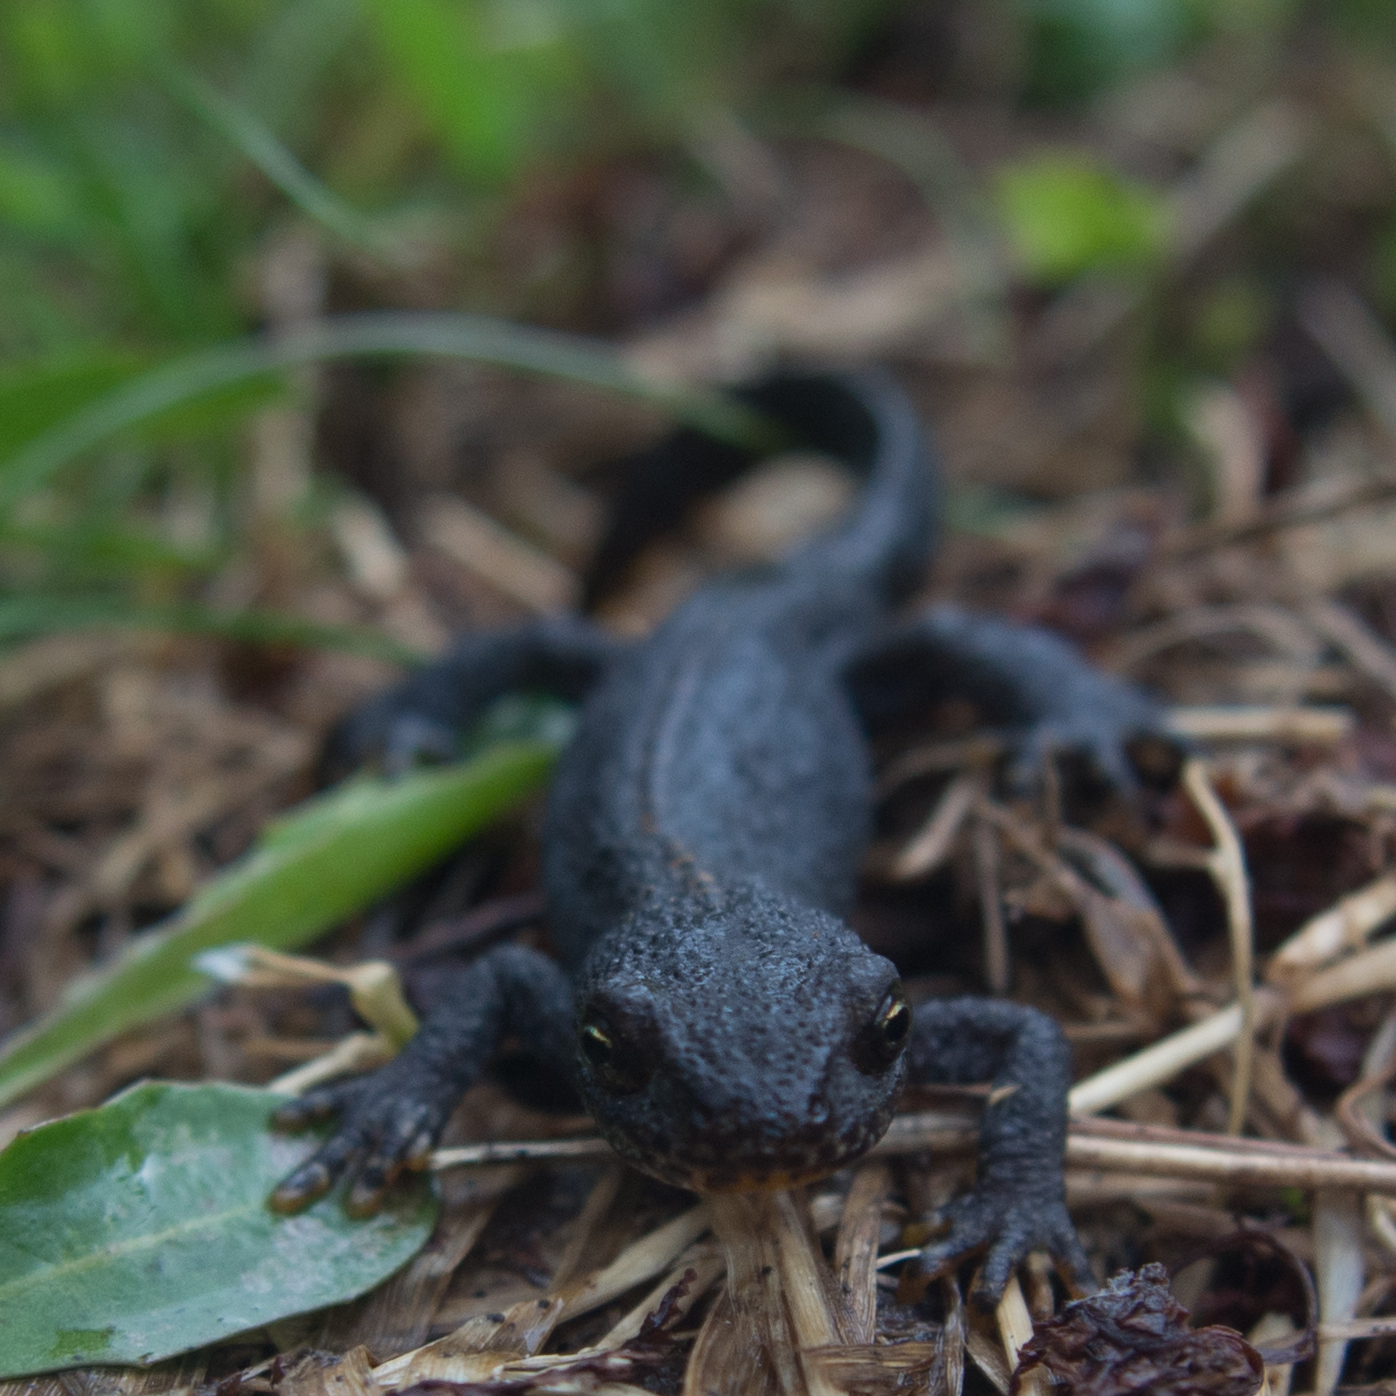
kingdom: Animalia
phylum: Chordata
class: Amphibia
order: Caudata
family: Salamandridae
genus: Ichthyosaura
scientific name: Ichthyosaura alpestris
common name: Alpine newt
